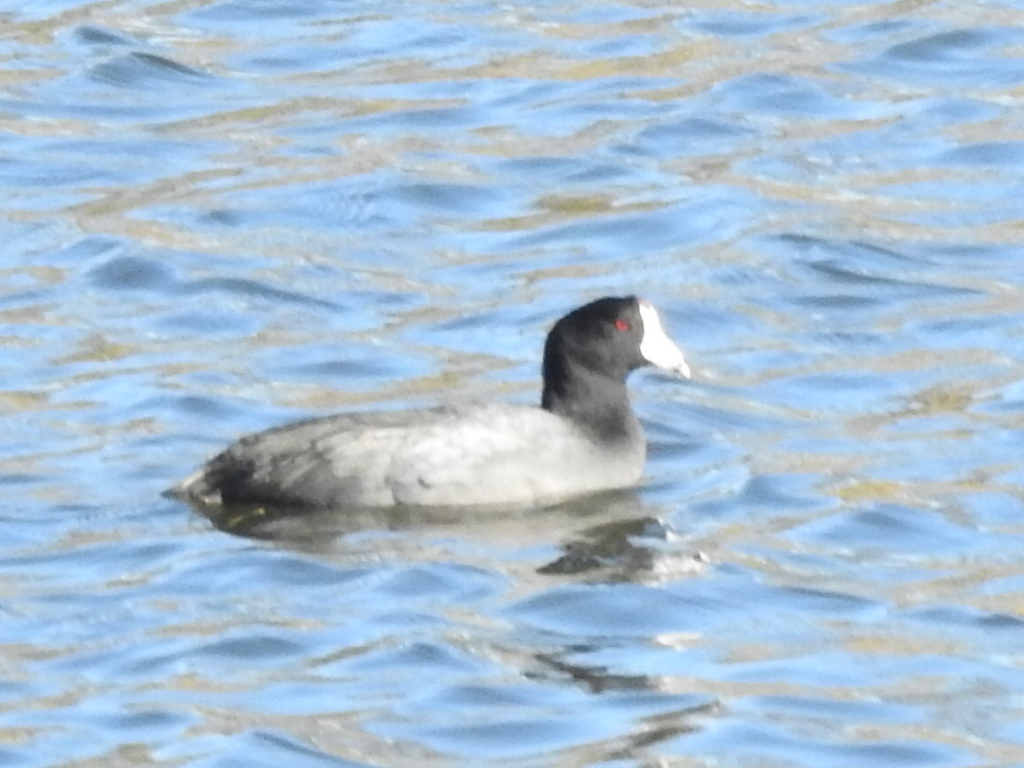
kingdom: Animalia
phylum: Chordata
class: Aves
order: Gruiformes
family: Rallidae
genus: Fulica
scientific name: Fulica americana
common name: American coot
